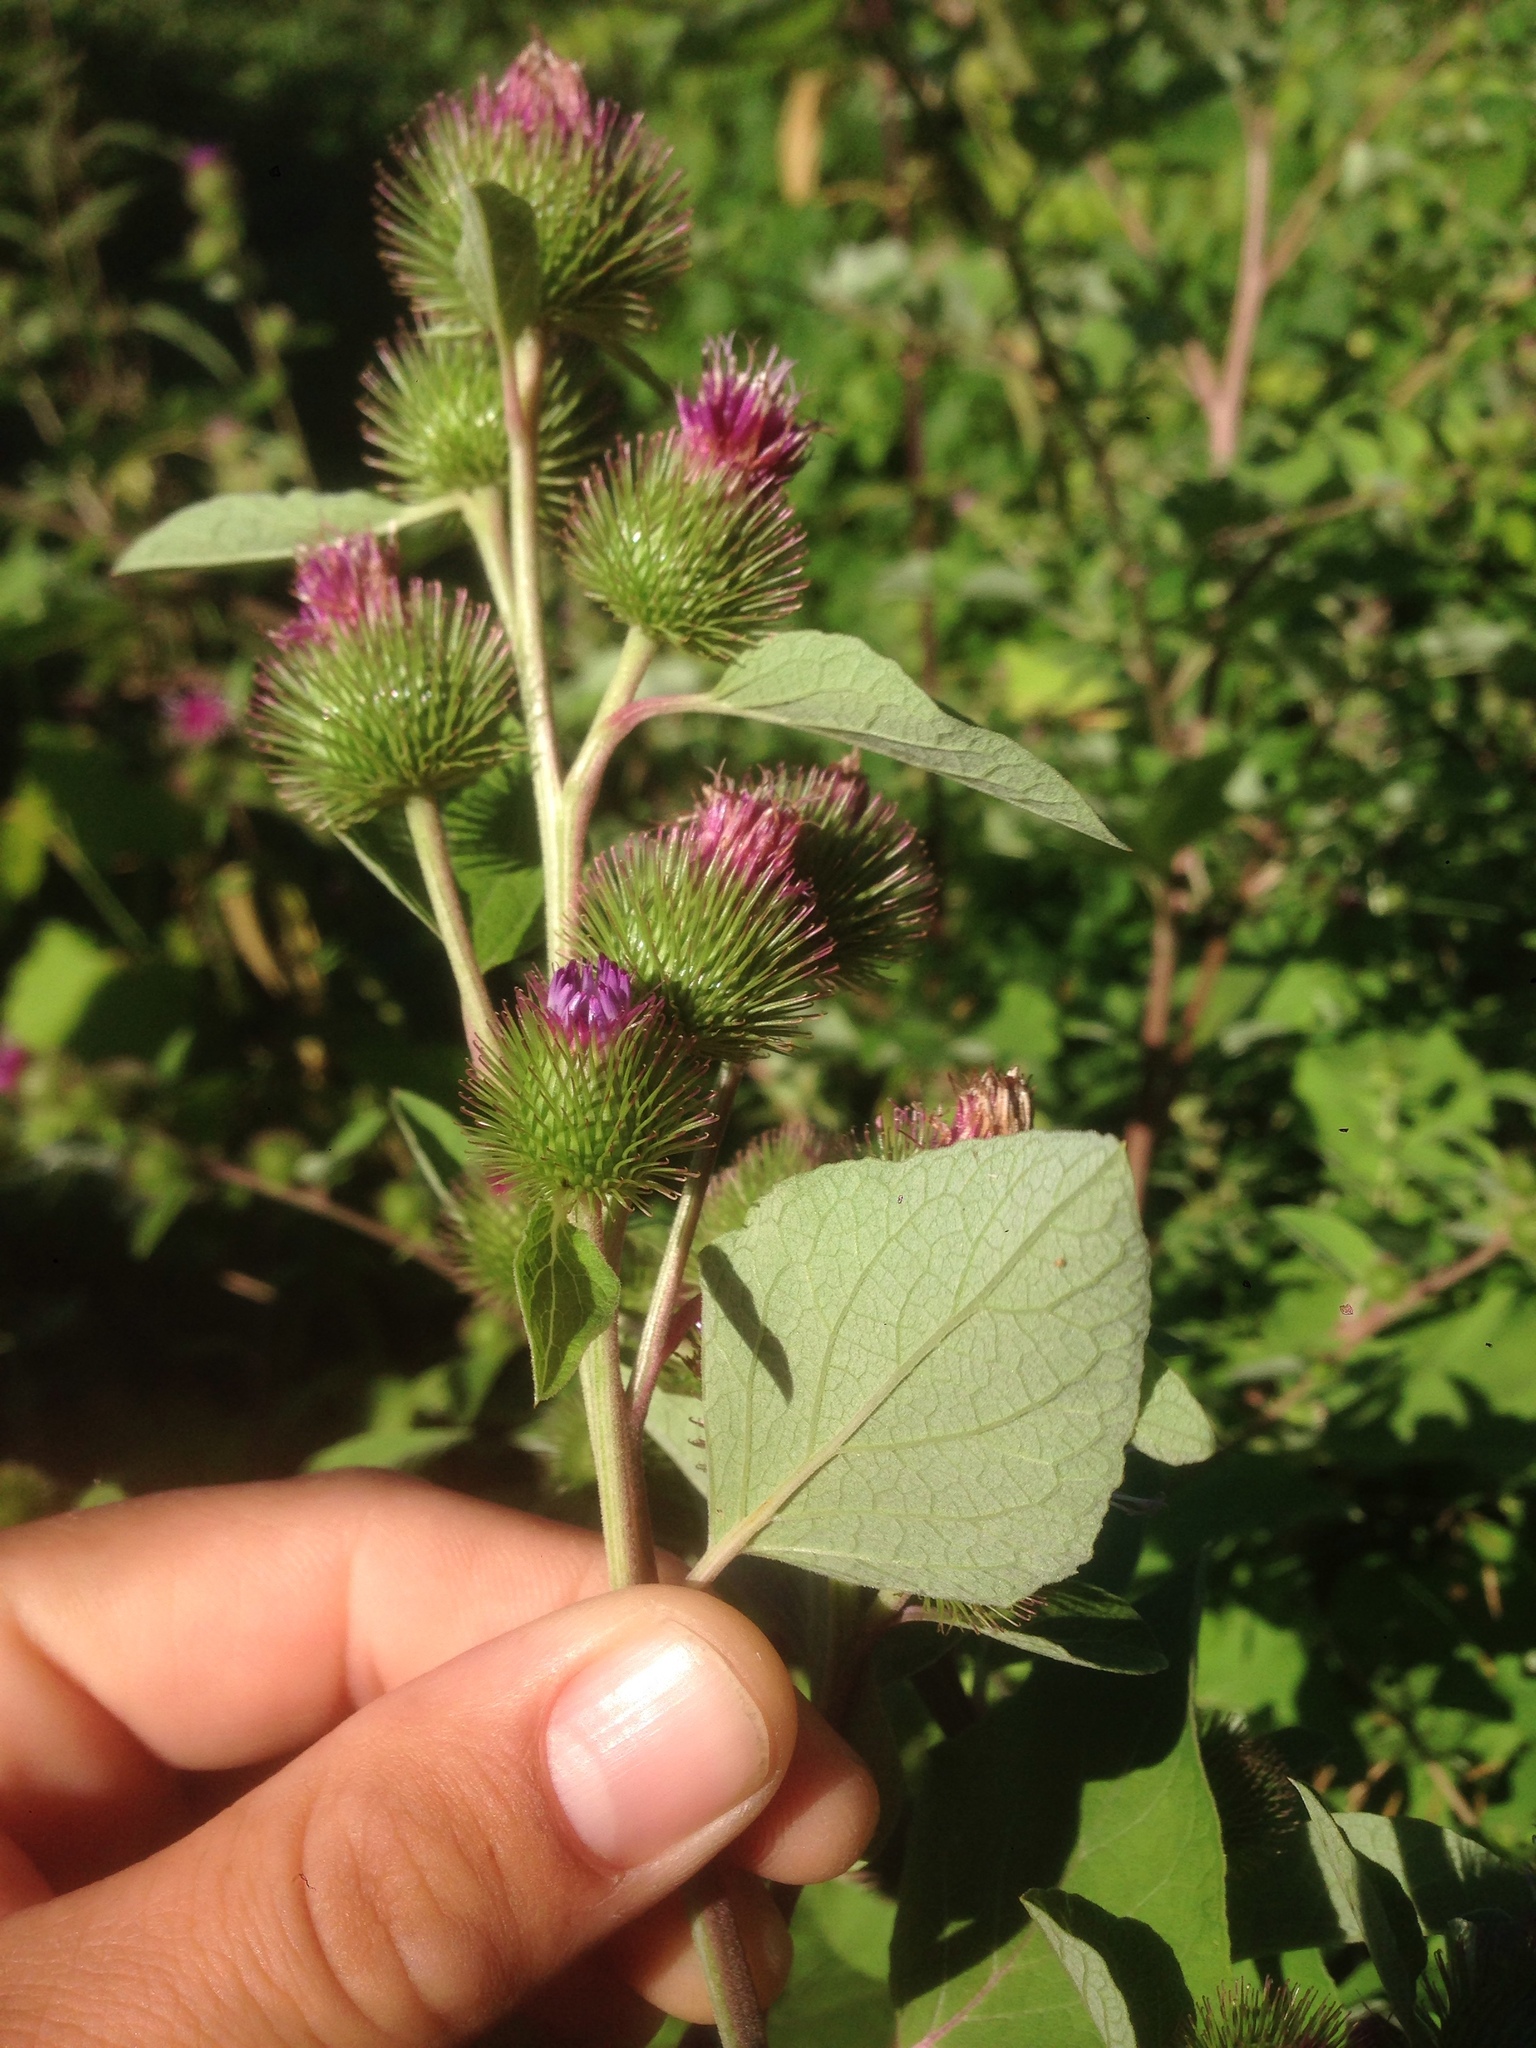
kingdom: Plantae
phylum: Tracheophyta
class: Magnoliopsida
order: Asterales
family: Asteraceae
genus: Arctium
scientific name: Arctium minus
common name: Lesser burdock
